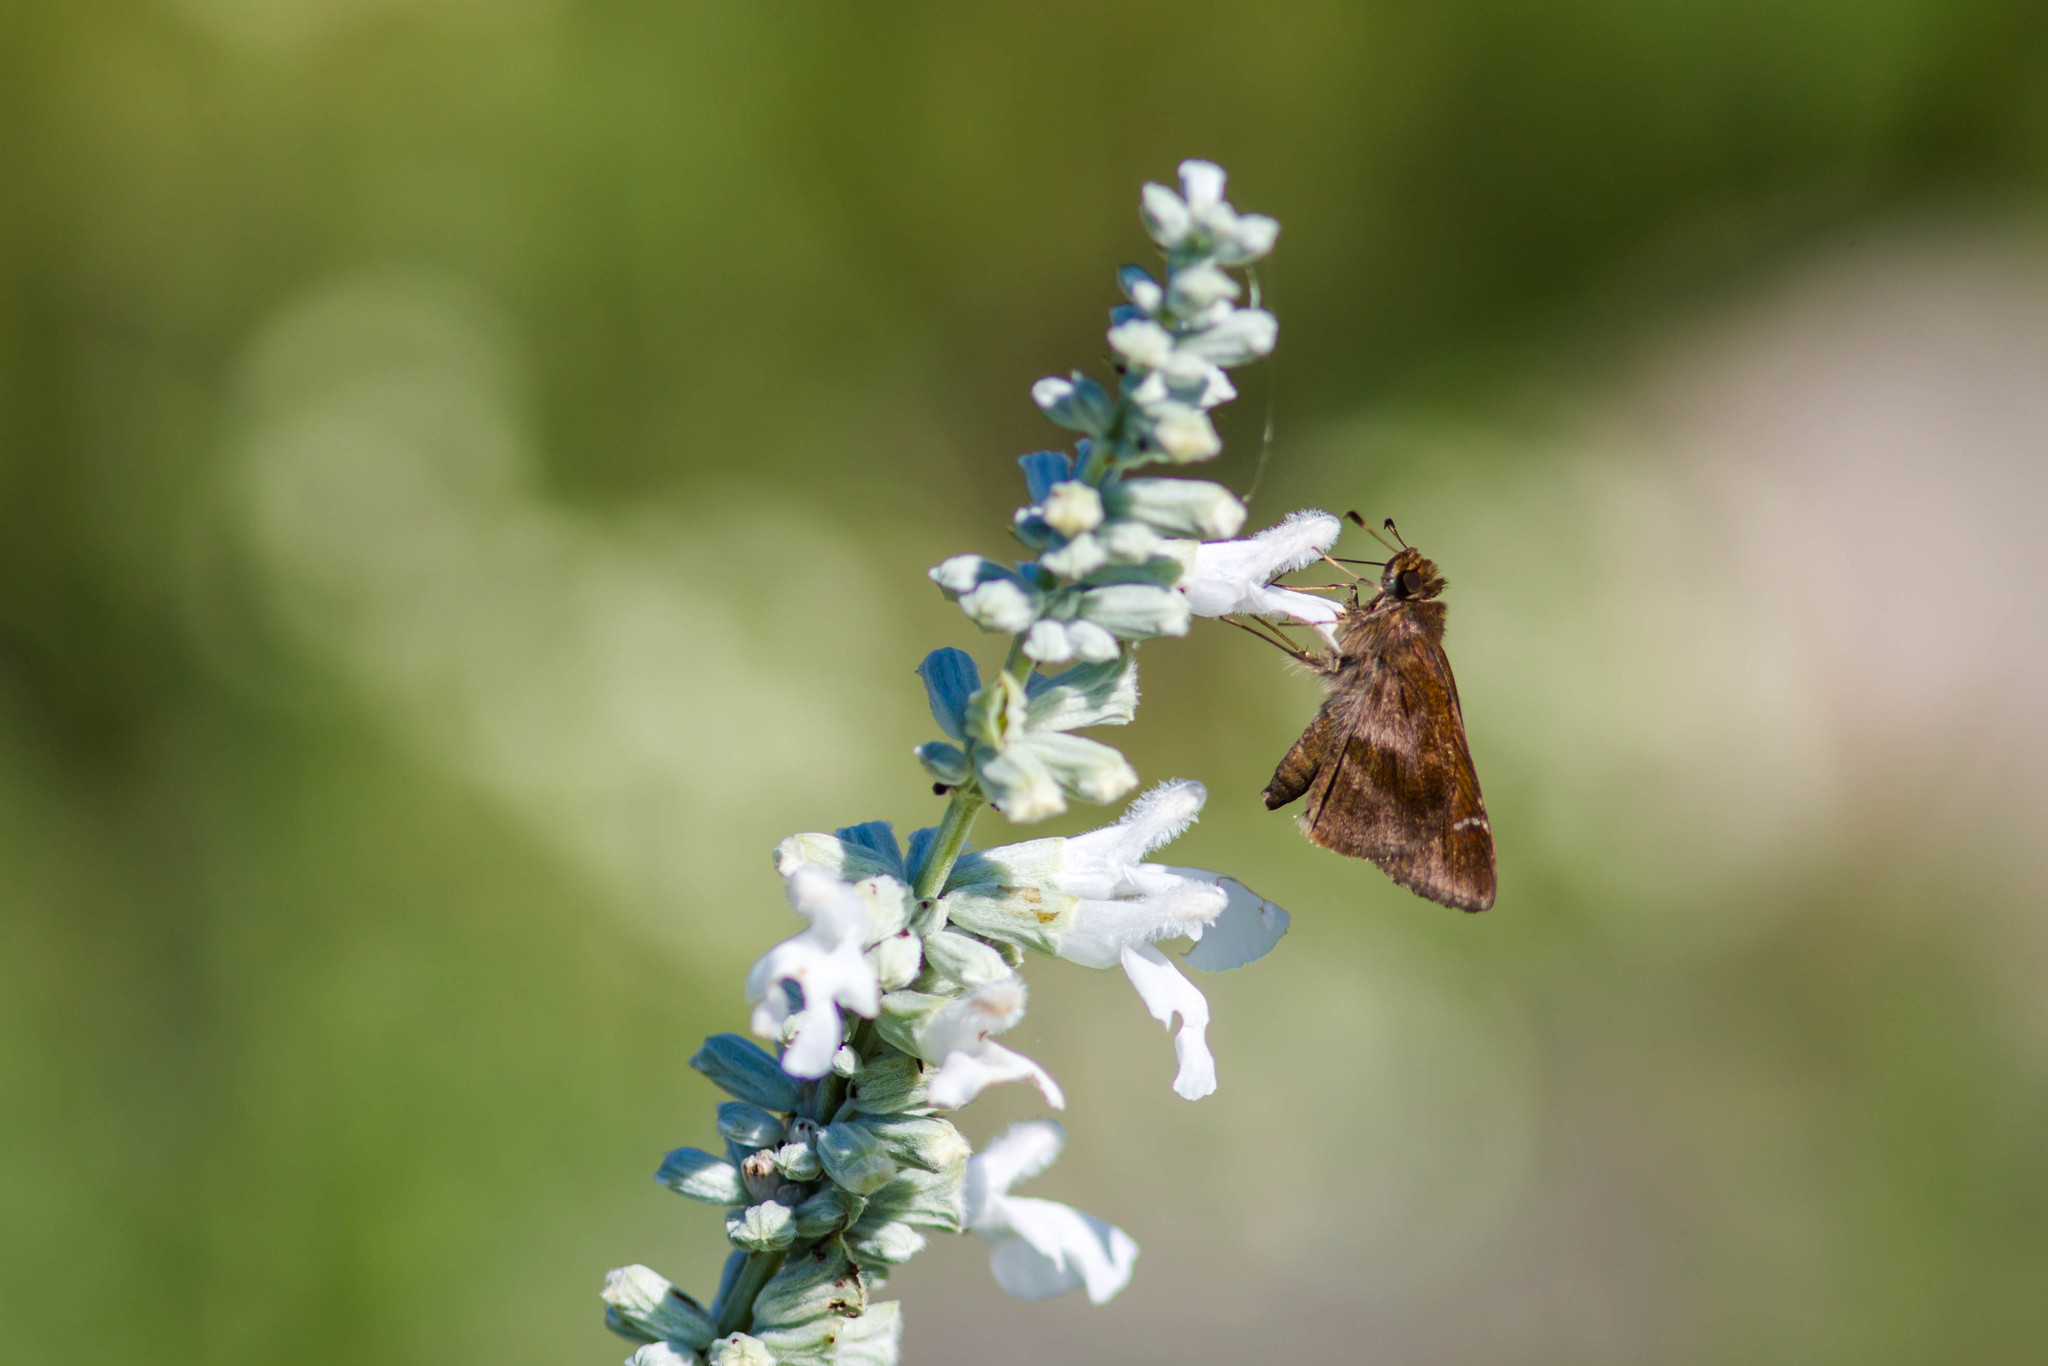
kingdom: Animalia
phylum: Arthropoda
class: Insecta
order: Lepidoptera
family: Hesperiidae
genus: Lerema
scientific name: Lerema accius
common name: Clouded skipper
